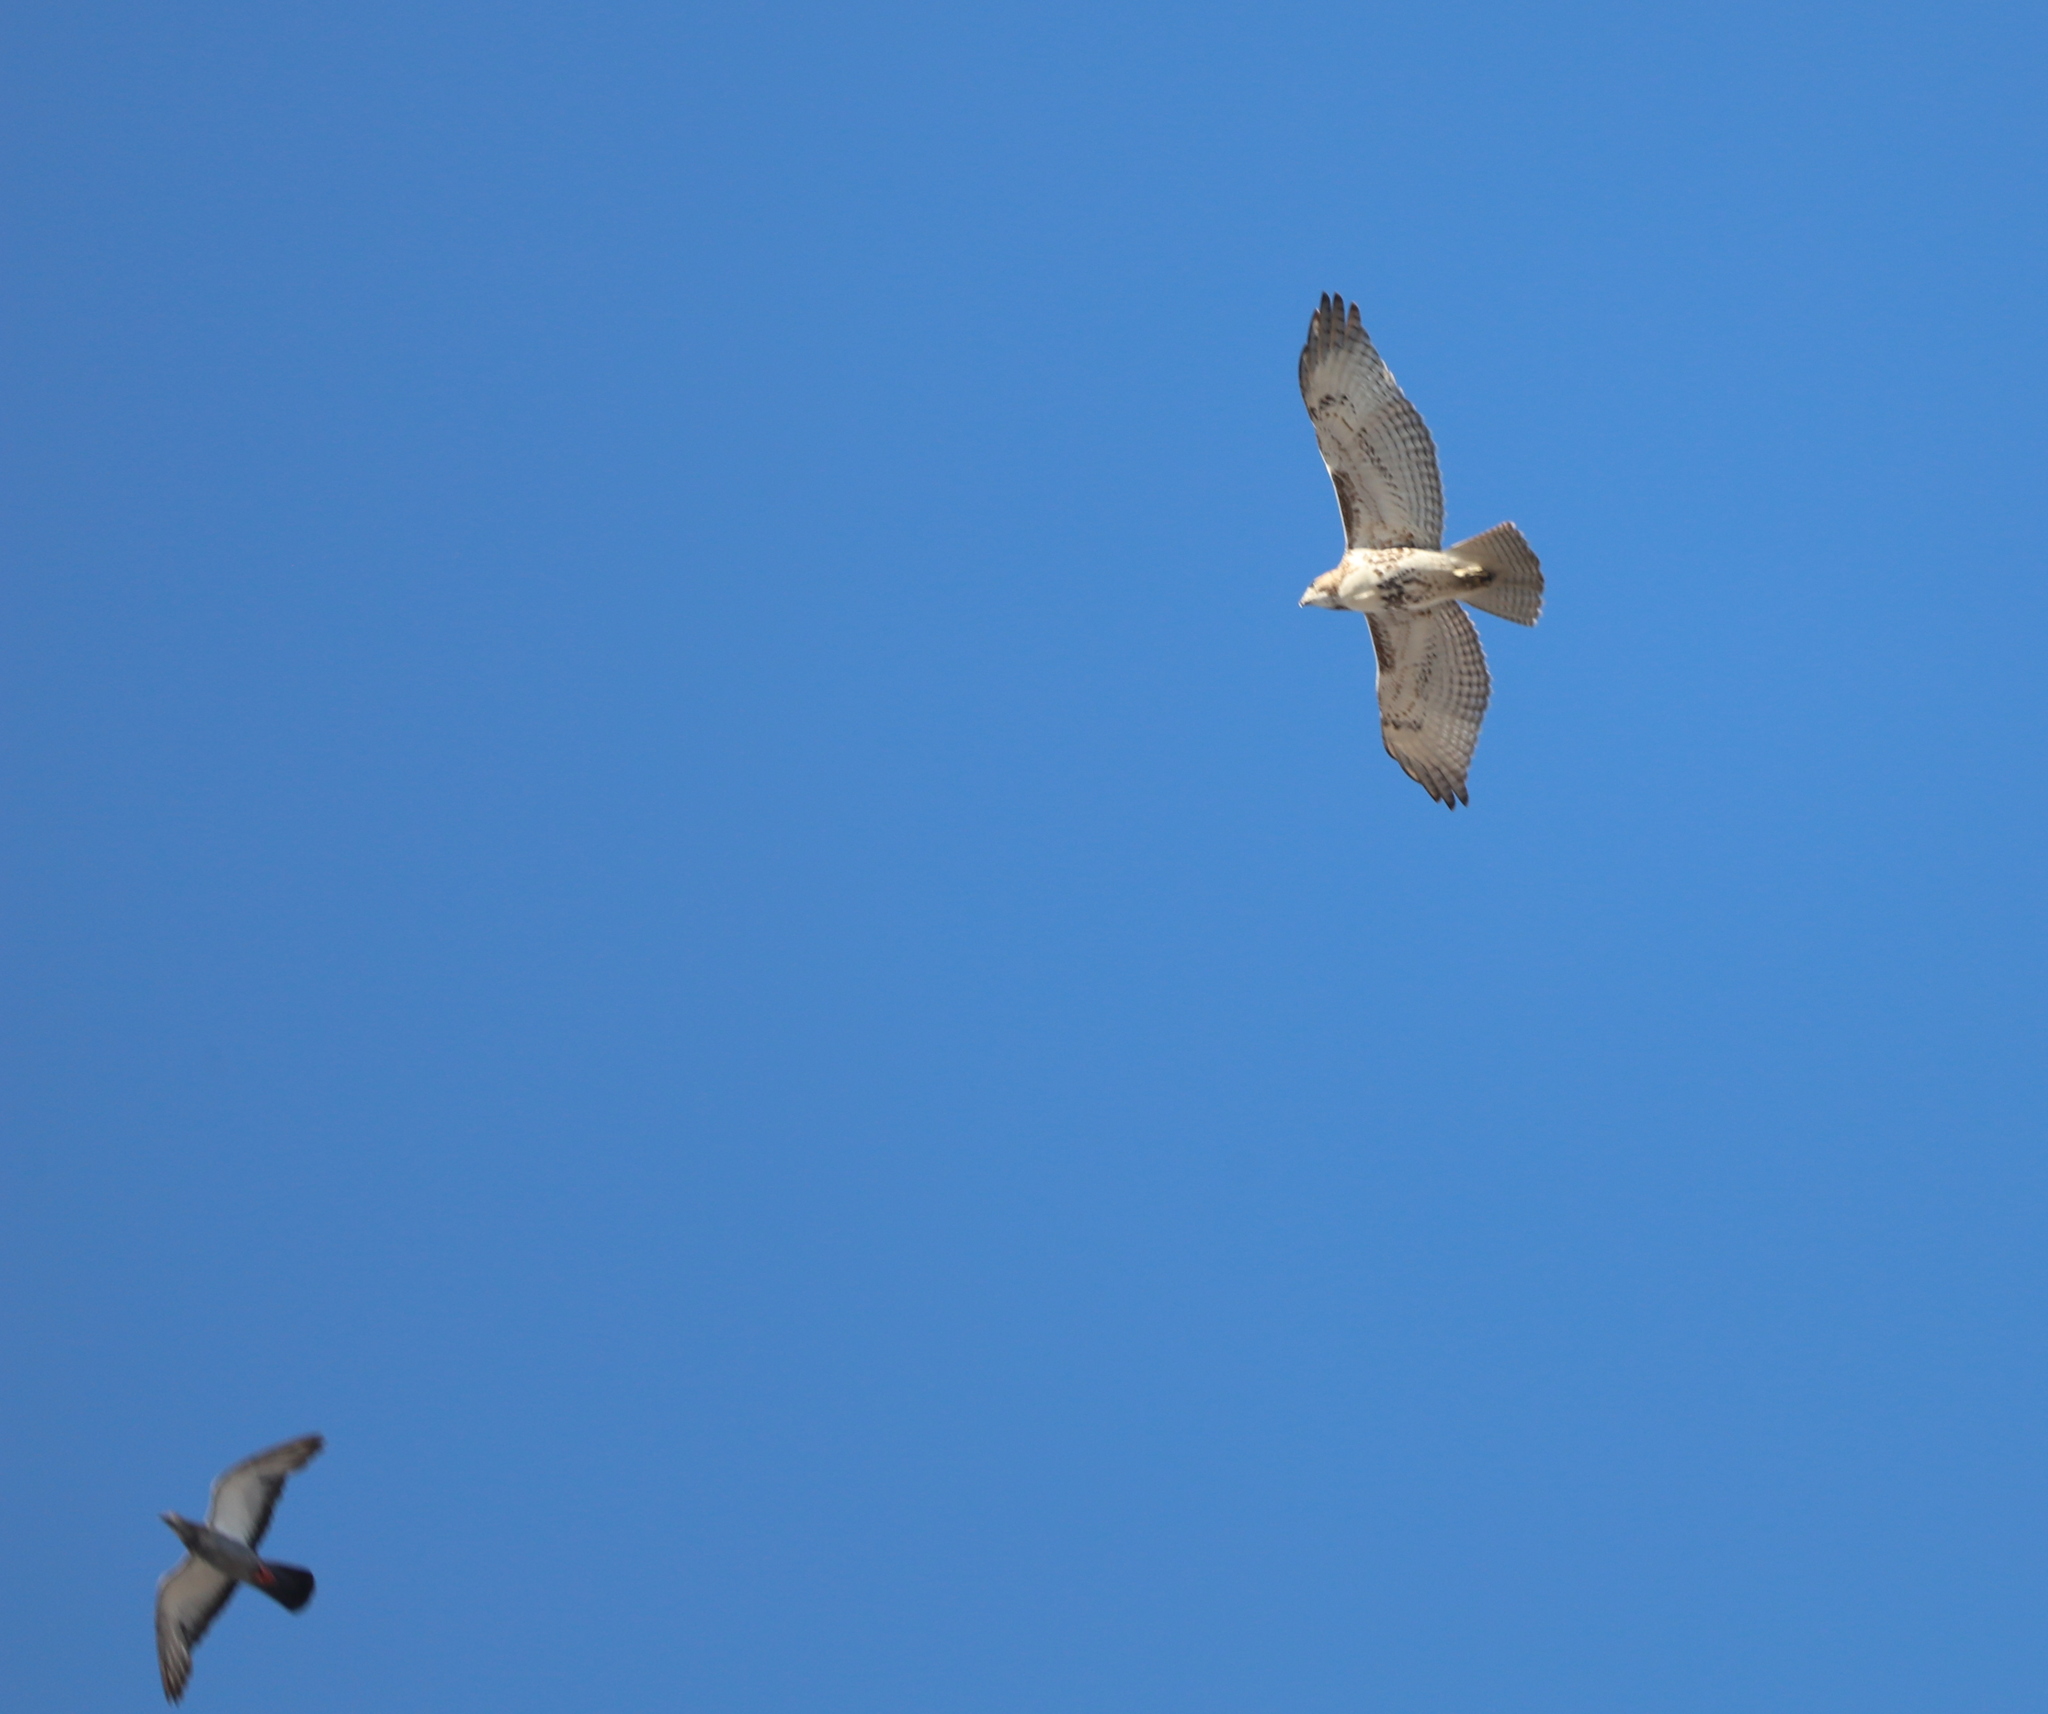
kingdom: Animalia
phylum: Chordata
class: Aves
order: Accipitriformes
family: Accipitridae
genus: Buteo
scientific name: Buteo jamaicensis
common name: Red-tailed hawk
